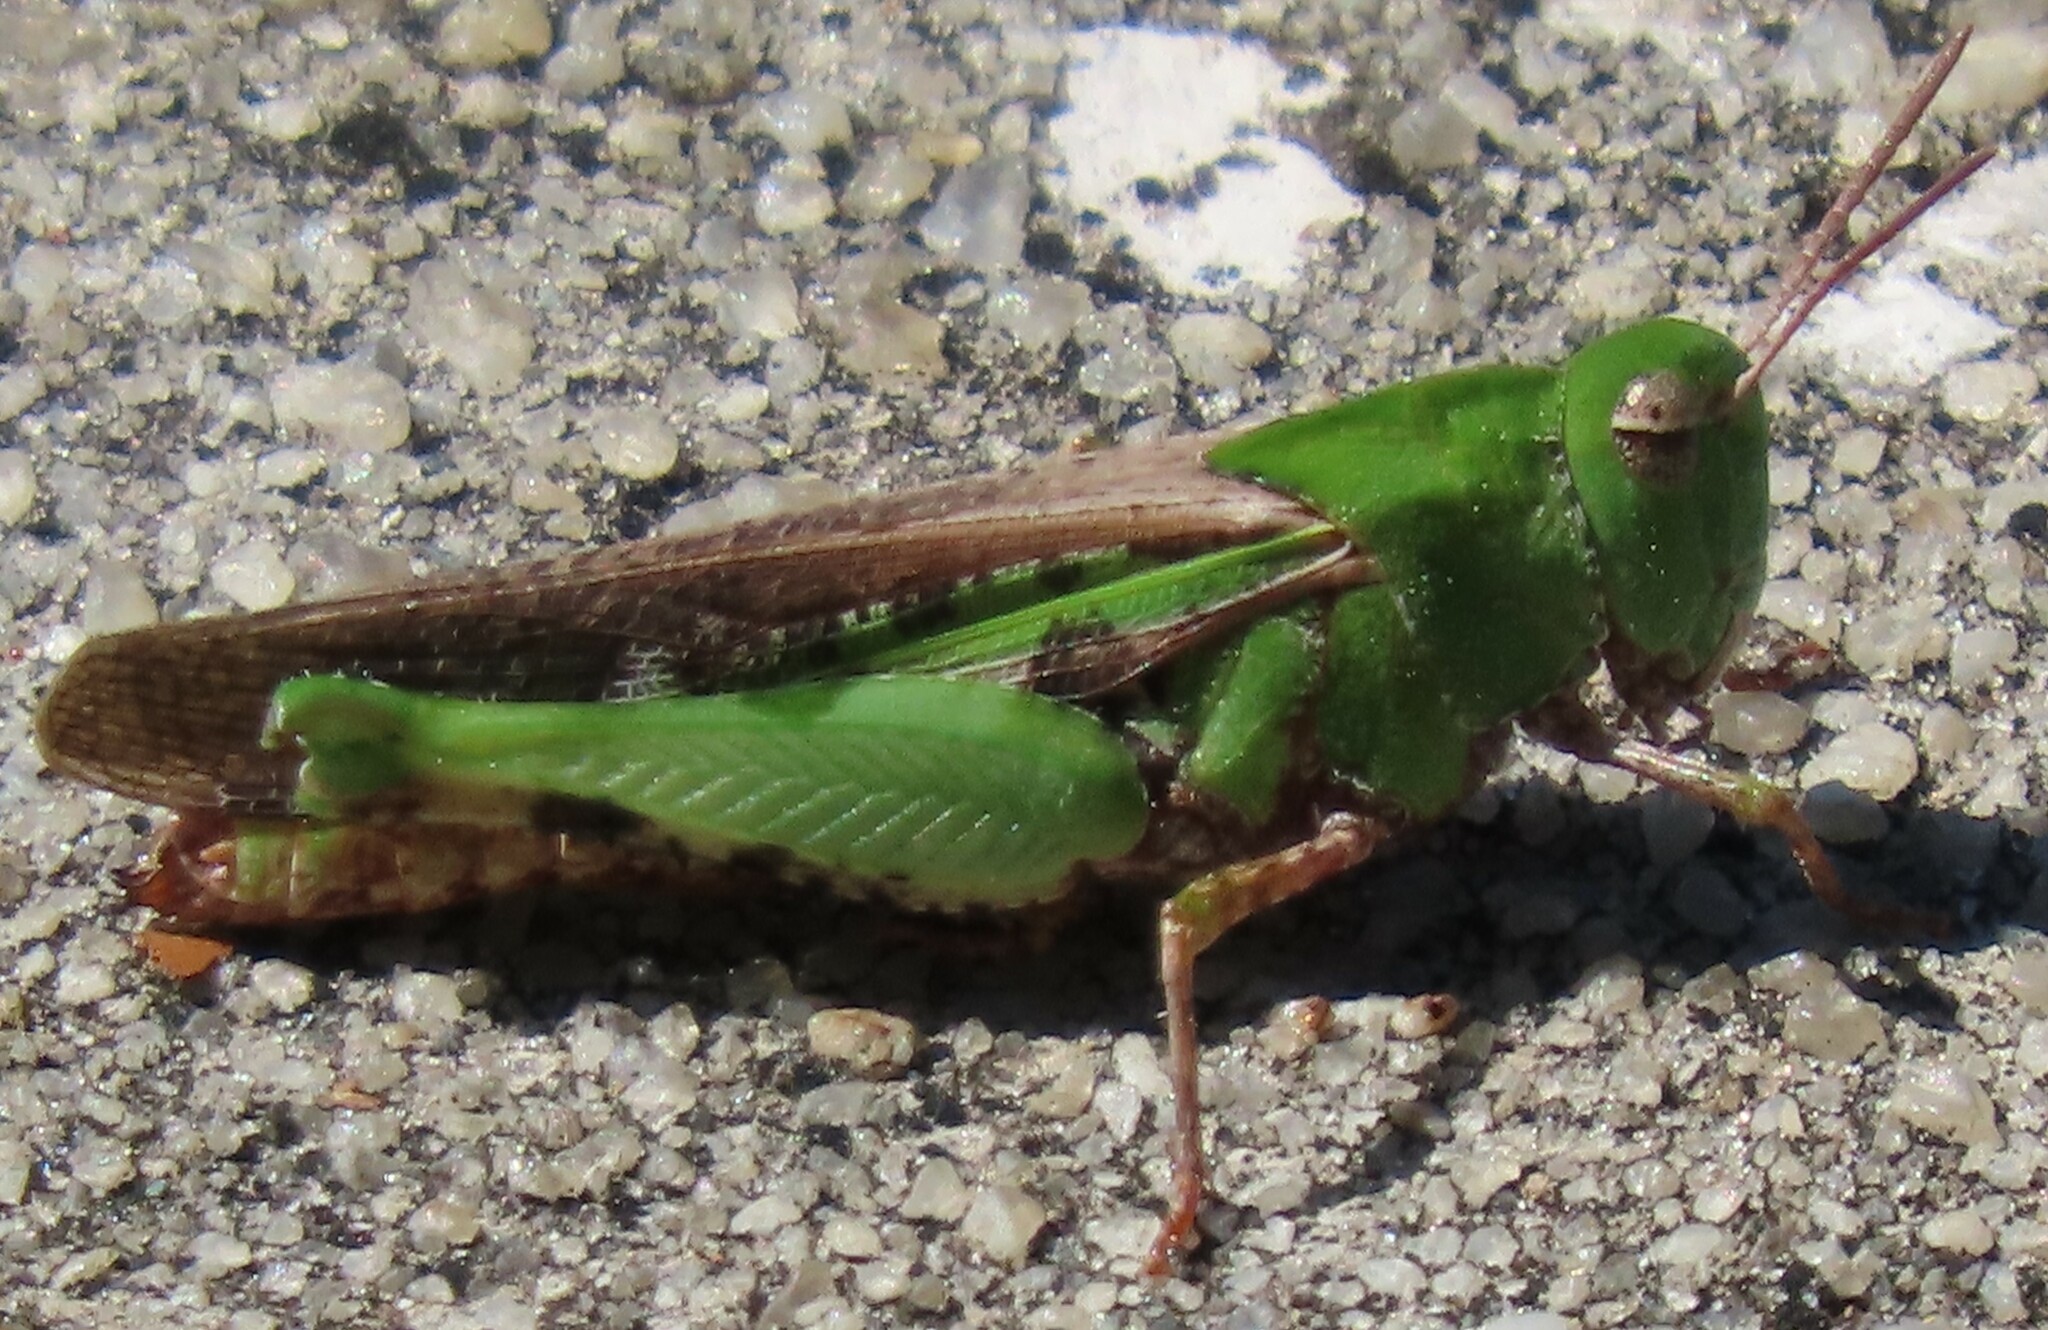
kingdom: Animalia
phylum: Arthropoda
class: Insecta
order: Orthoptera
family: Acrididae
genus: Chortophaga
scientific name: Chortophaga australior
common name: Southern green-striped grasshopper
